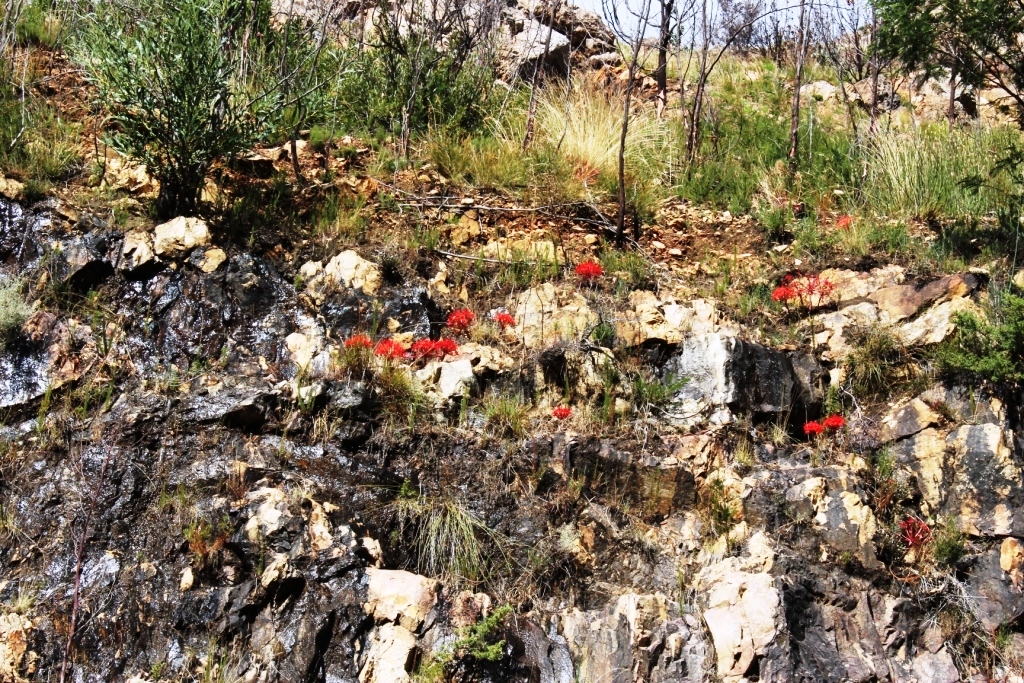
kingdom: Plantae
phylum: Tracheophyta
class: Liliopsida
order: Asparagales
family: Amaryllidaceae
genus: Brunsvigia
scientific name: Brunsvigia marginata
